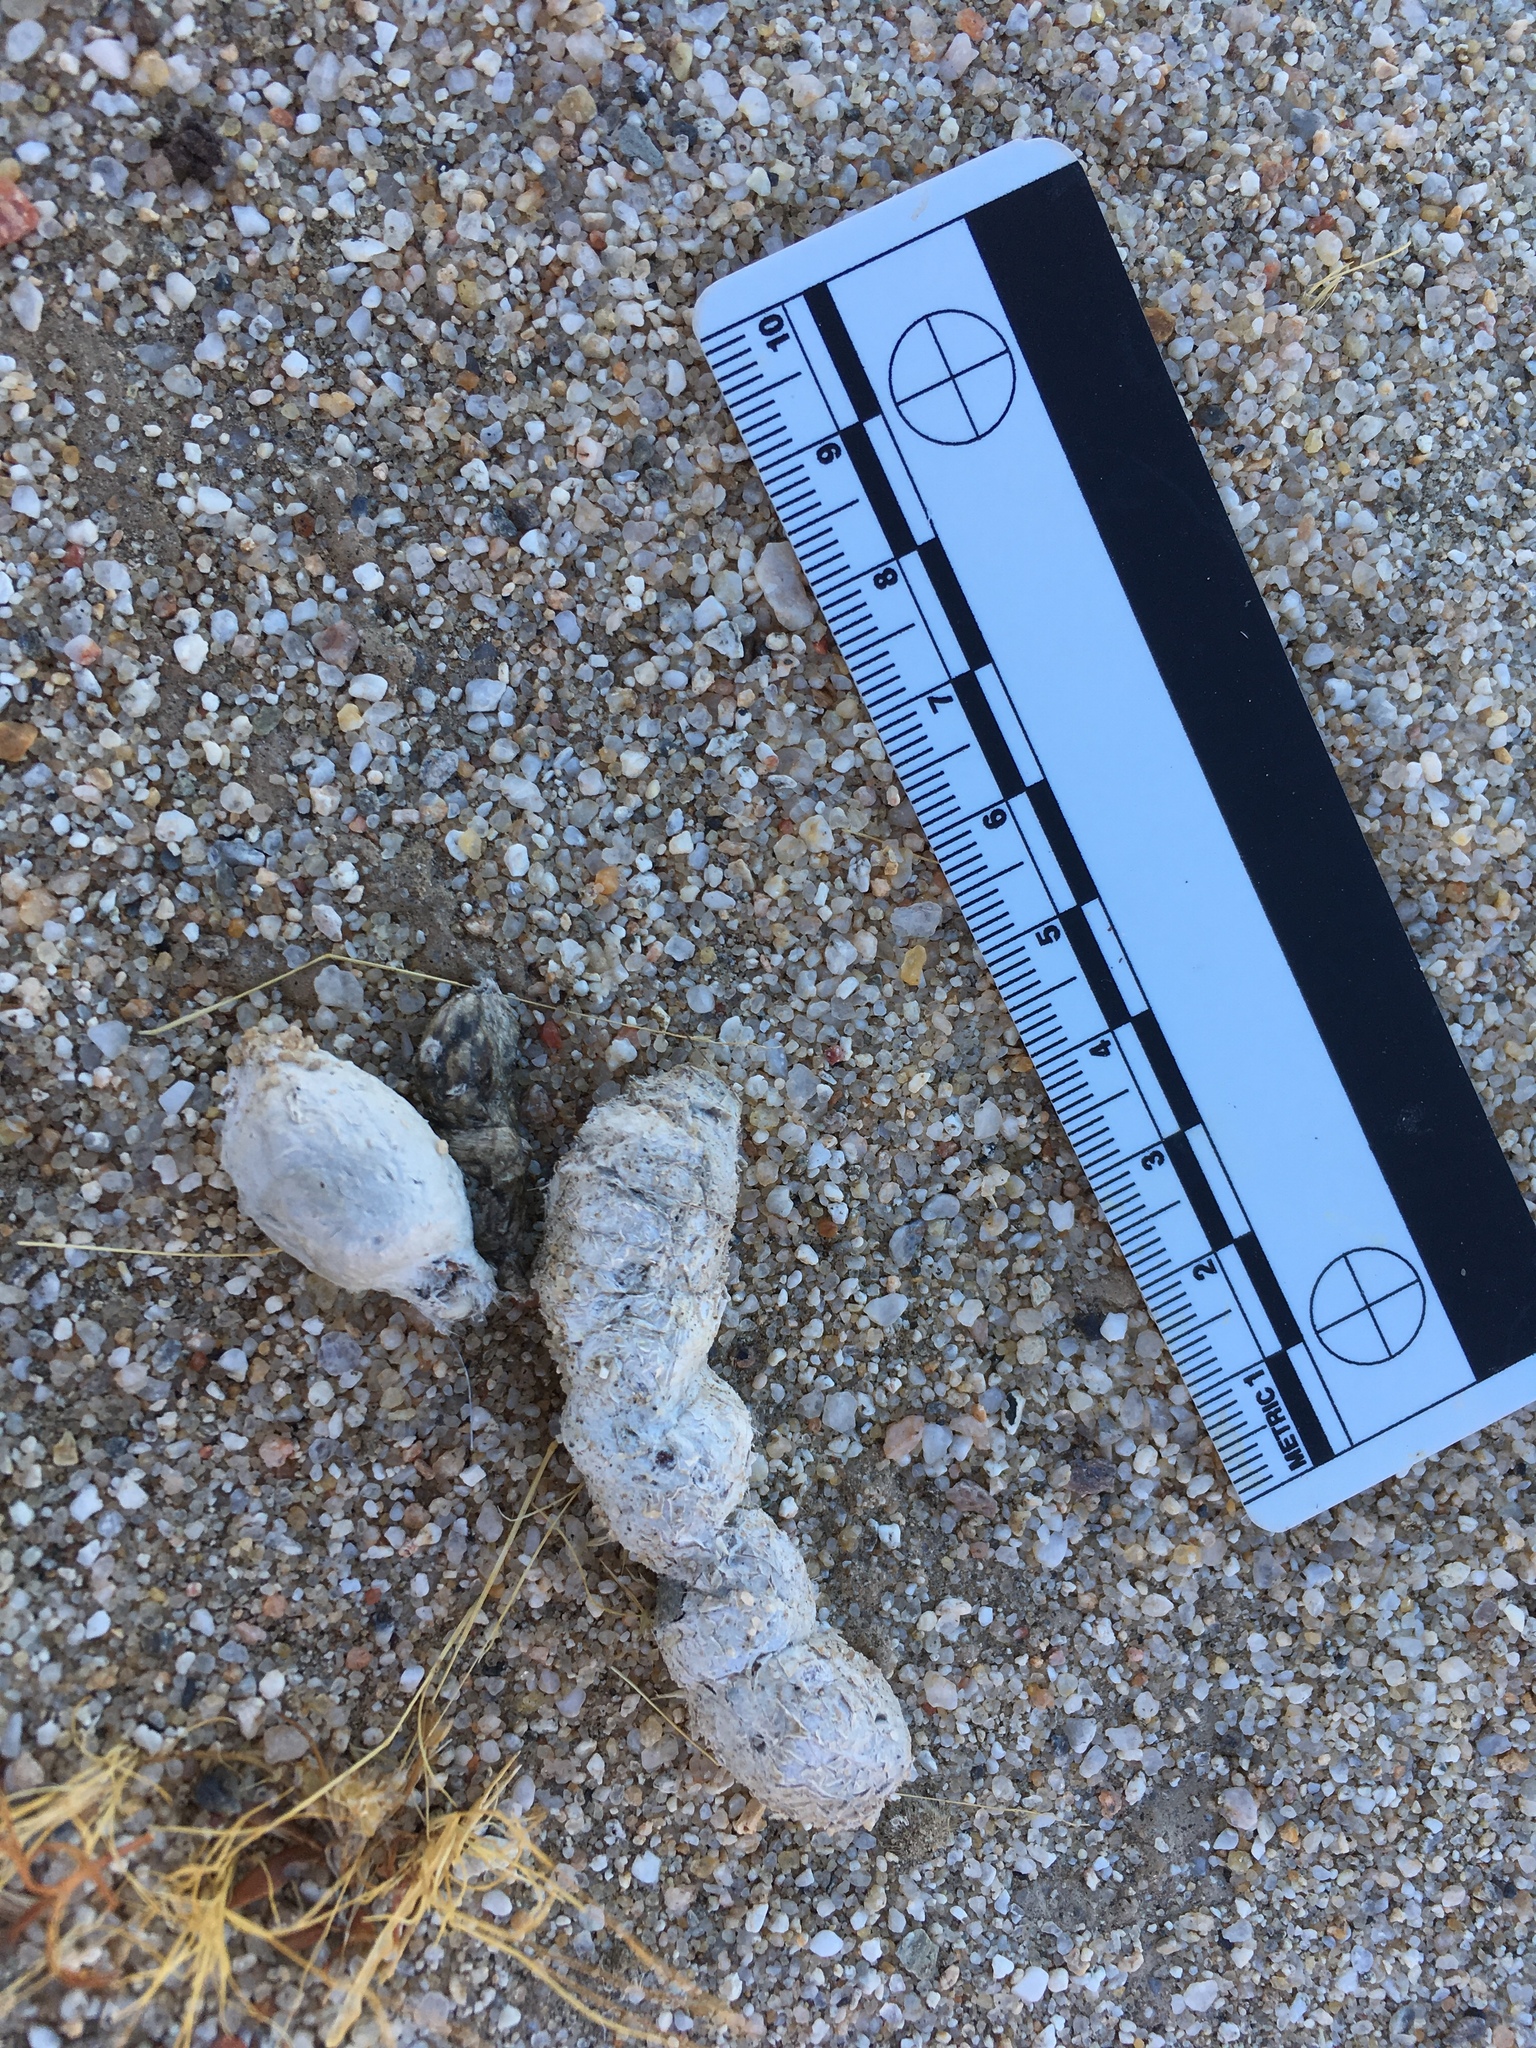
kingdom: Animalia
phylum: Chordata
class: Mammalia
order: Carnivora
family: Felidae
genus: Lynx
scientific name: Lynx rufus
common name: Bobcat
